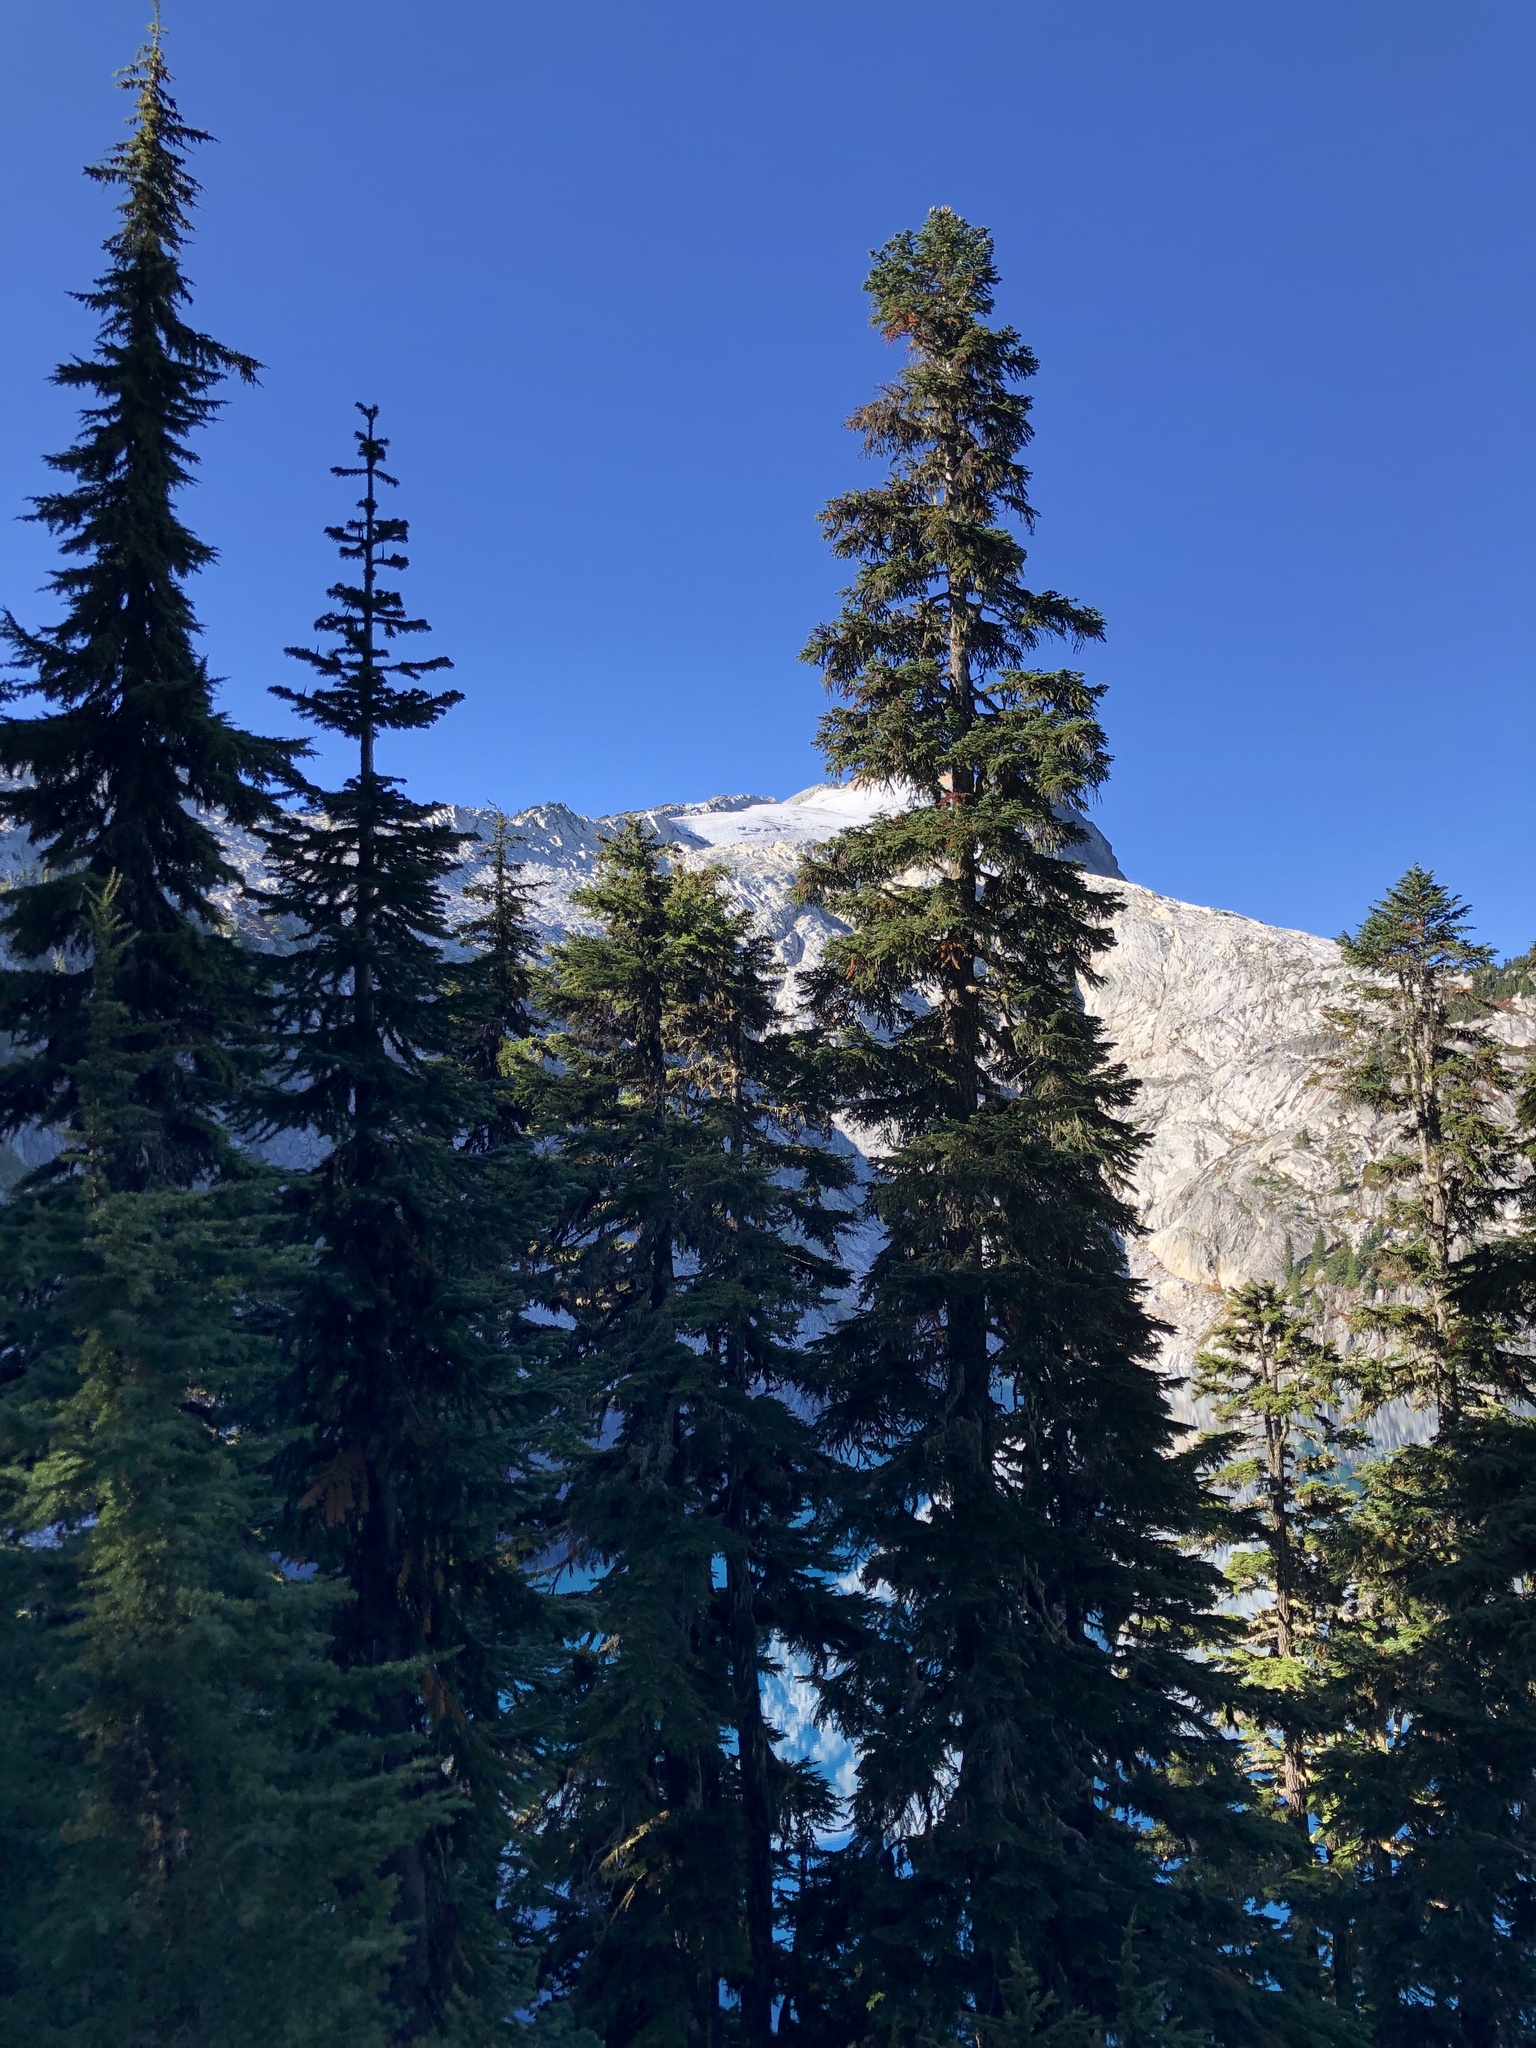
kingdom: Plantae
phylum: Tracheophyta
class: Pinopsida
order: Pinales
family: Pinaceae
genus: Abies
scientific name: Abies amabilis
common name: Pacific silver fir
